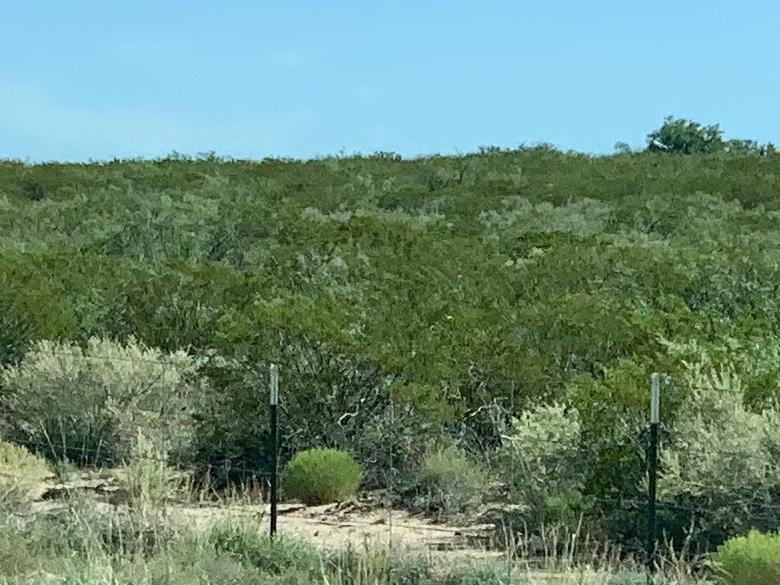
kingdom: Plantae
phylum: Tracheophyta
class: Magnoliopsida
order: Zygophyllales
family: Zygophyllaceae
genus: Larrea
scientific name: Larrea tridentata
